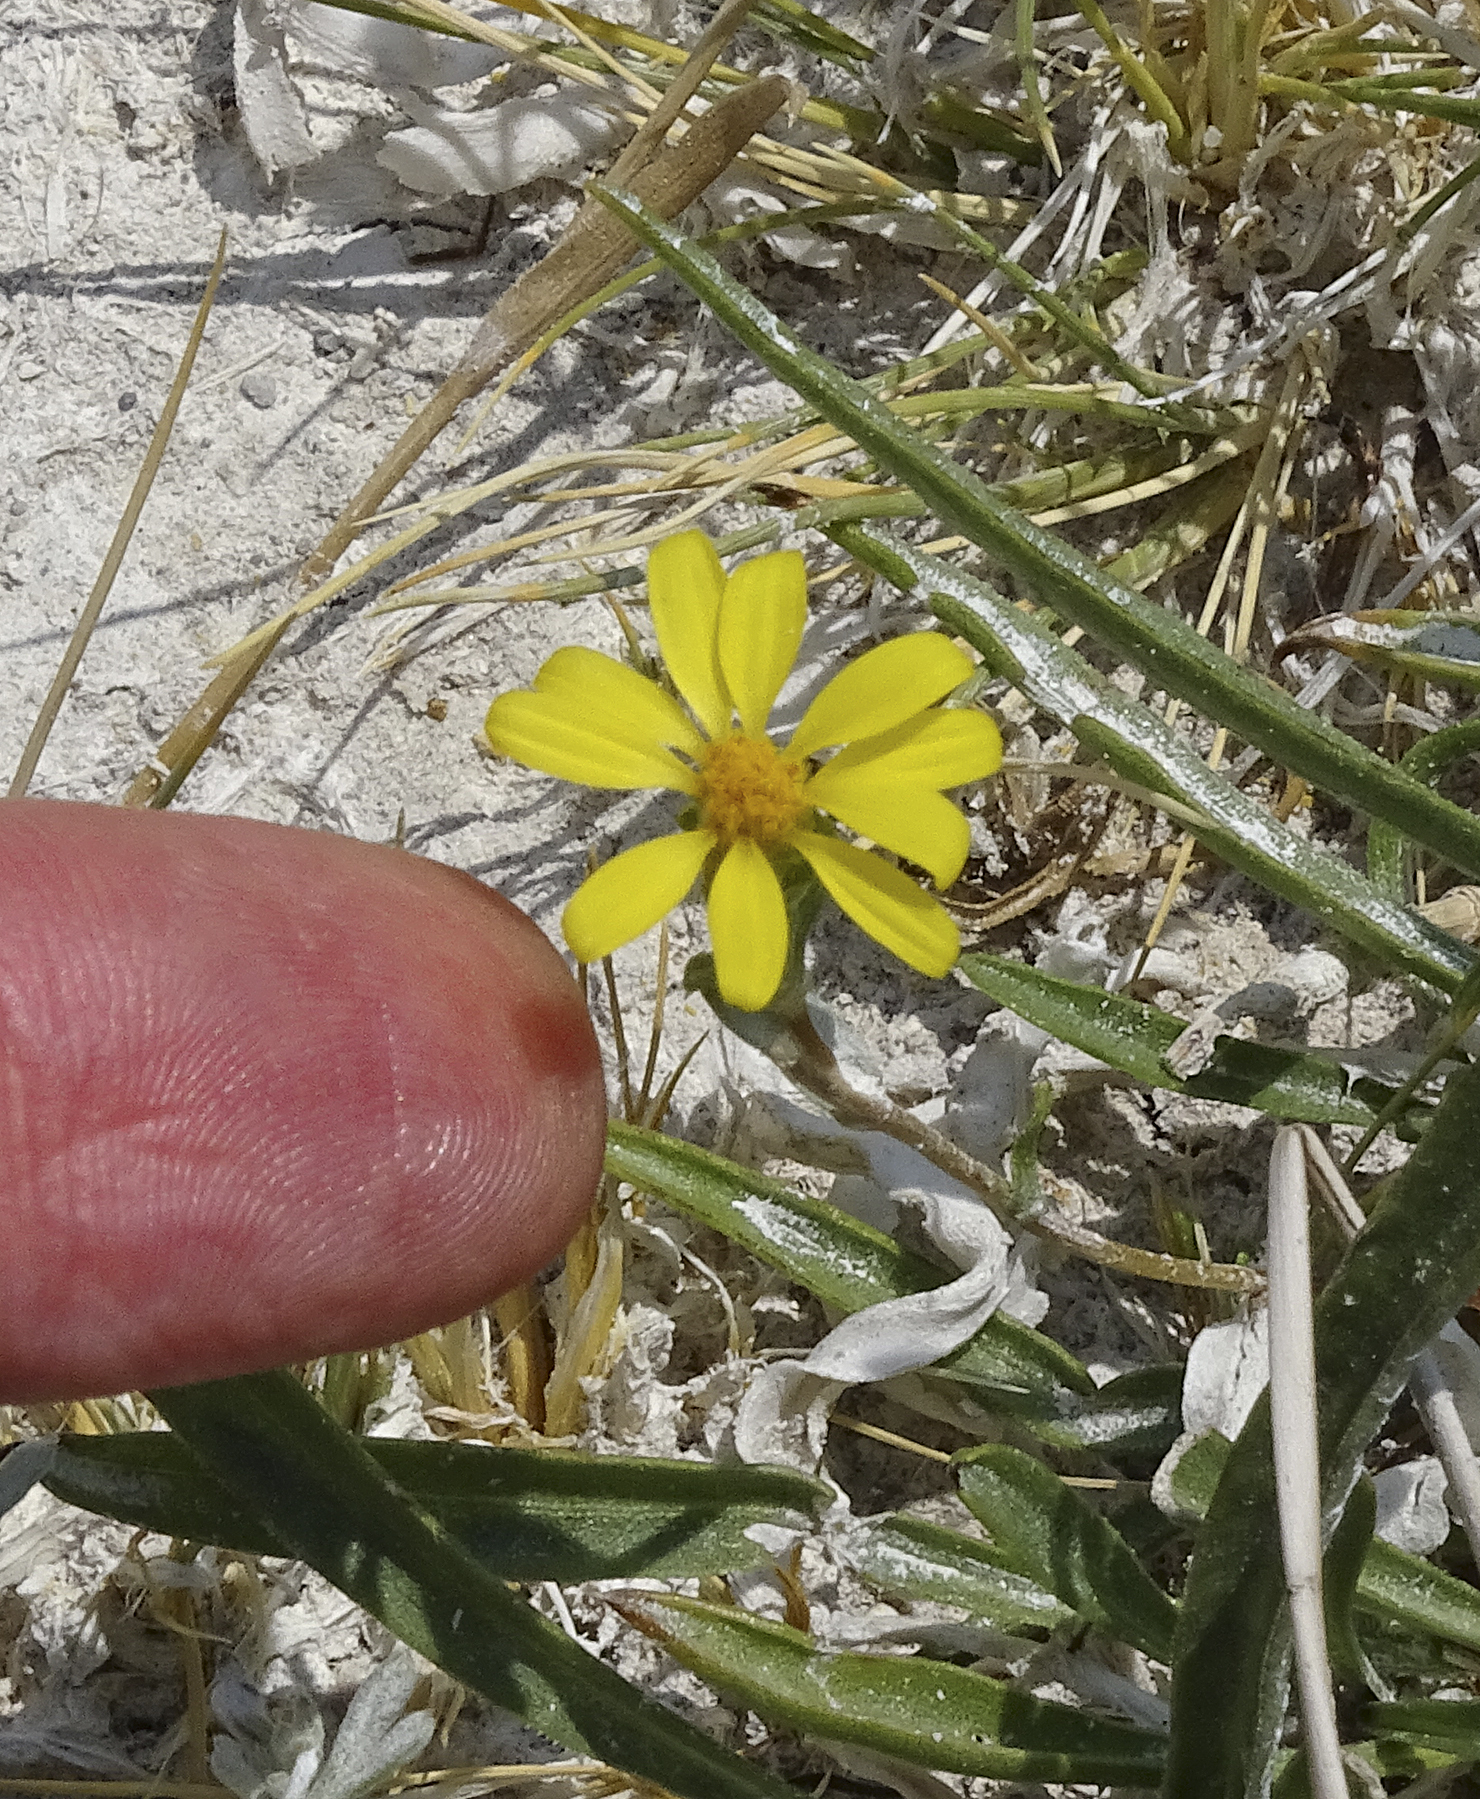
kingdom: Plantae
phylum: Tracheophyta
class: Magnoliopsida
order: Asterales
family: Asteraceae
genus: Pyrrocoma
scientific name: Pyrrocoma uniflora
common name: Plantain goldenweed
